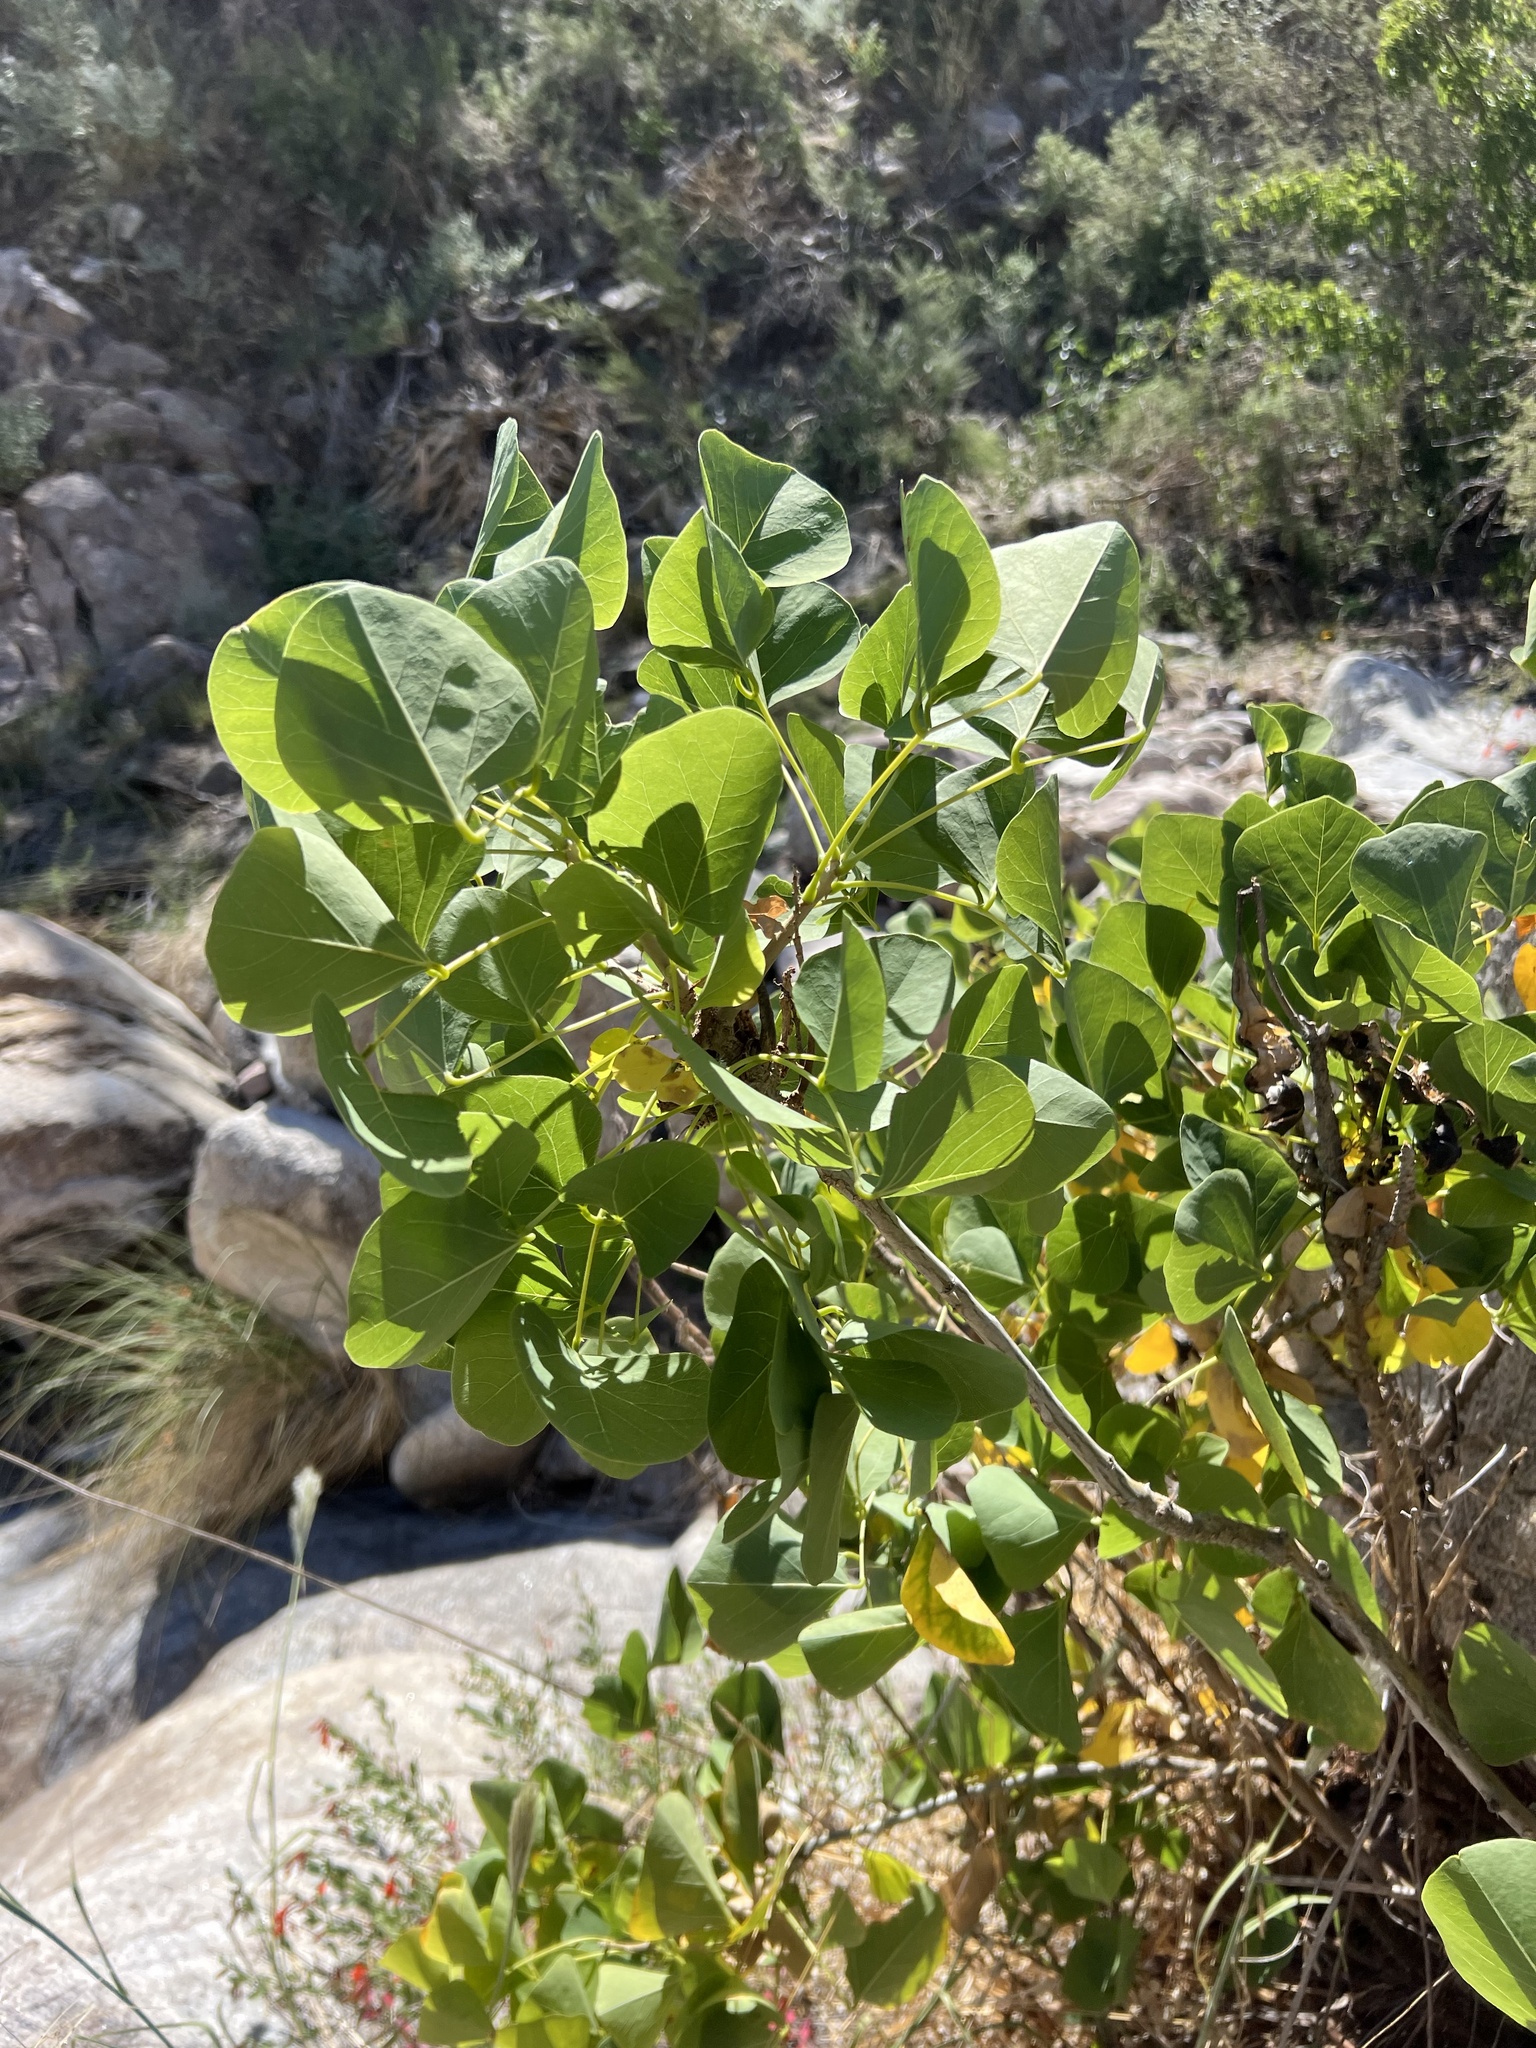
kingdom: Plantae
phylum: Tracheophyta
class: Magnoliopsida
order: Fabales
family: Fabaceae
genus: Erythrina
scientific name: Erythrina flabelliformis
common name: Chilicote
